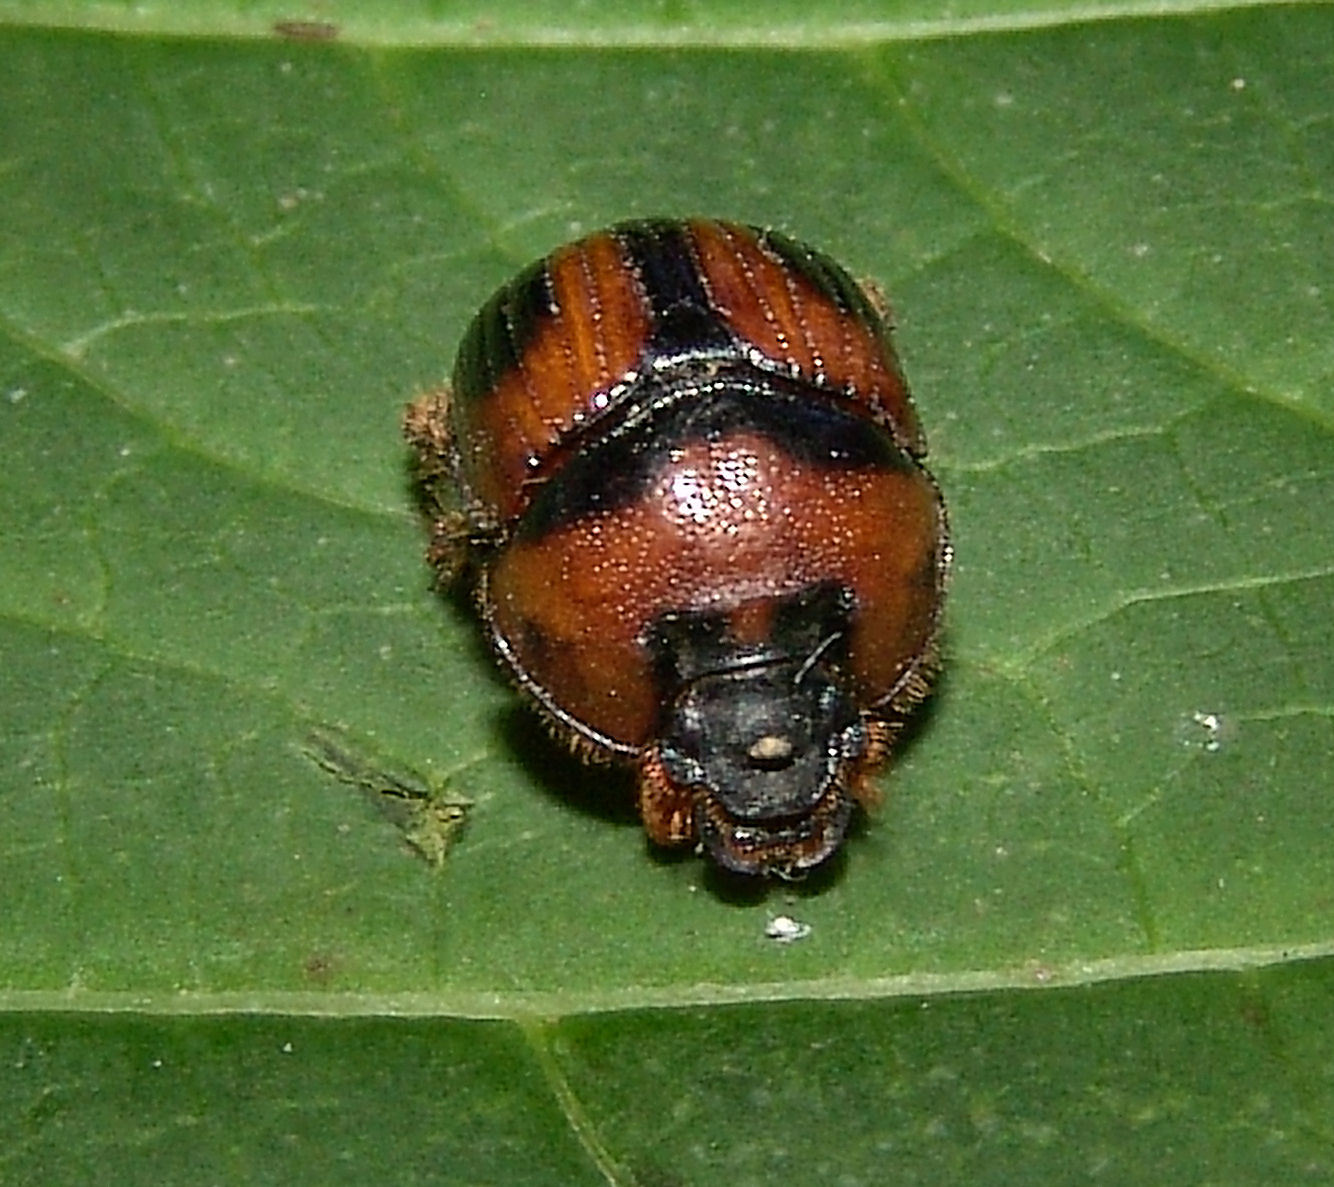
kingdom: Animalia
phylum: Arthropoda
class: Insecta
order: Coleoptera
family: Geotrupidae
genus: Bolbocerosoma
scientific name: Bolbocerosoma confusum
